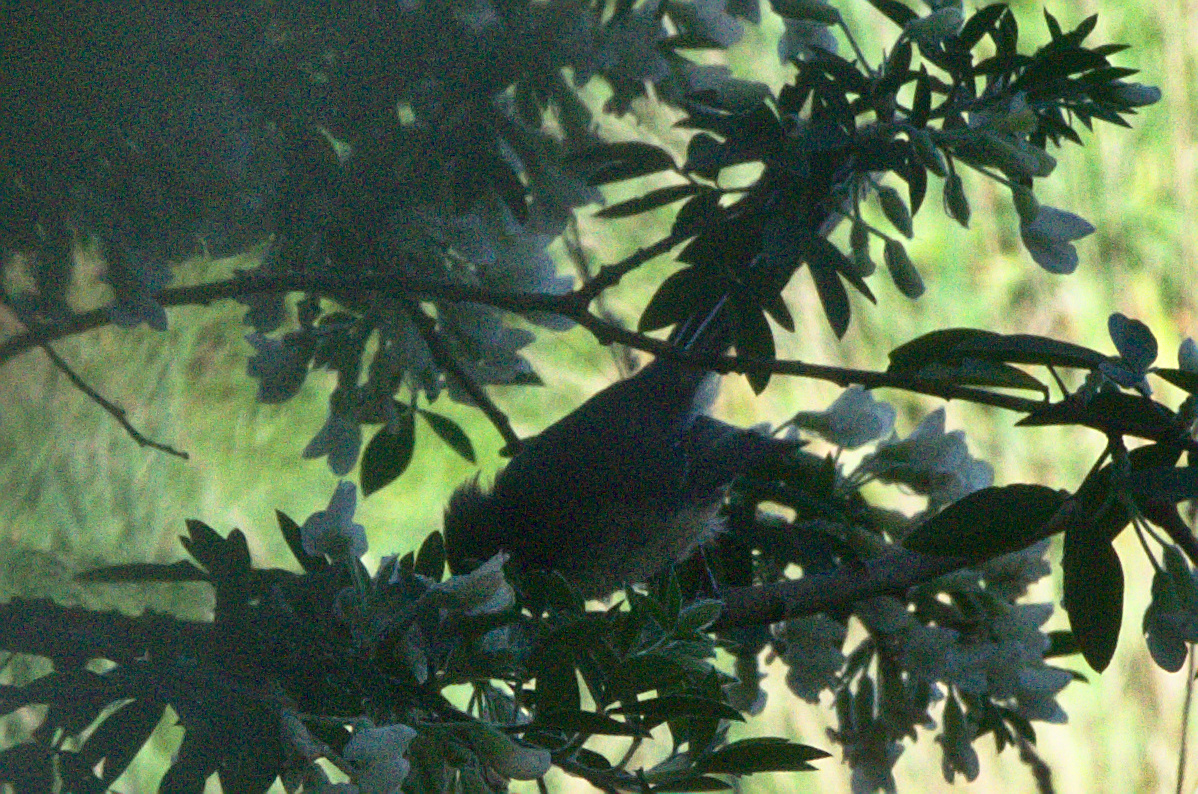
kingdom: Animalia
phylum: Chordata
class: Aves
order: Passeriformes
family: Rhipiduridae
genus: Rhipidura
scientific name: Rhipidura fuliginosa
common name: New zealand fantail
